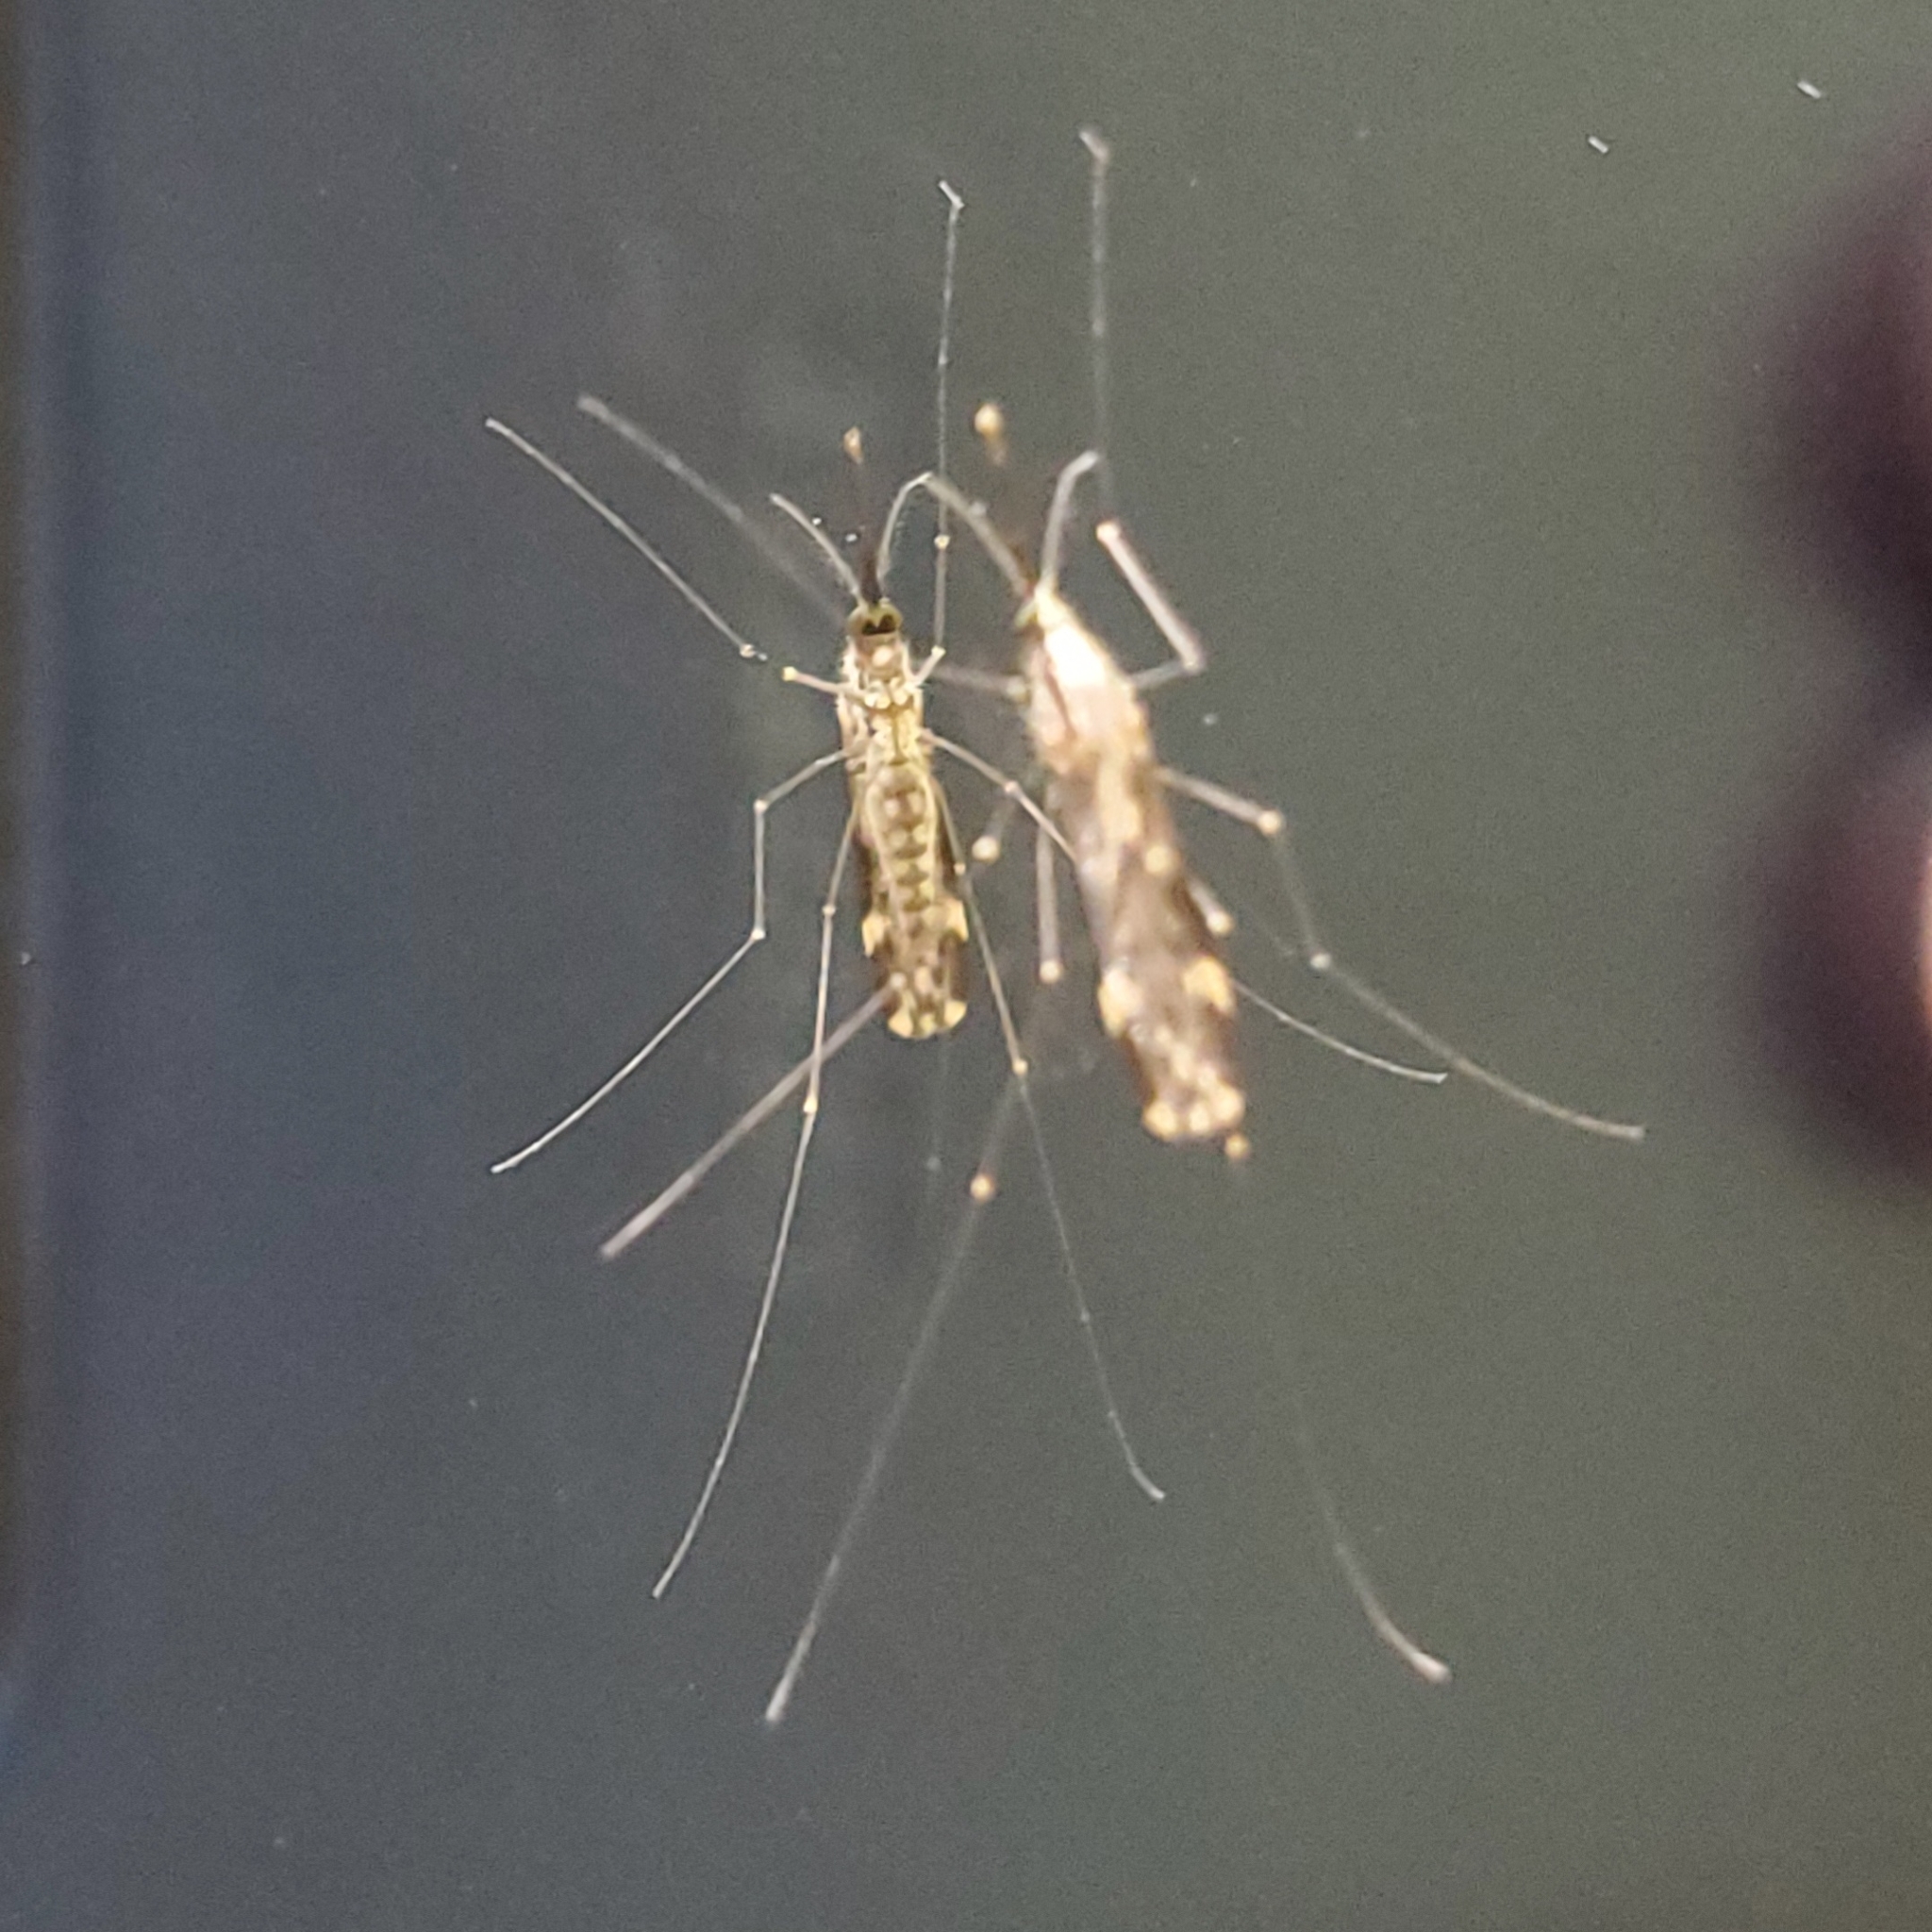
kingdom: Animalia
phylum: Arthropoda
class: Insecta
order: Diptera
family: Culicidae
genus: Anopheles
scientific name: Anopheles punctipennis
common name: Woodland malaria mosquito
